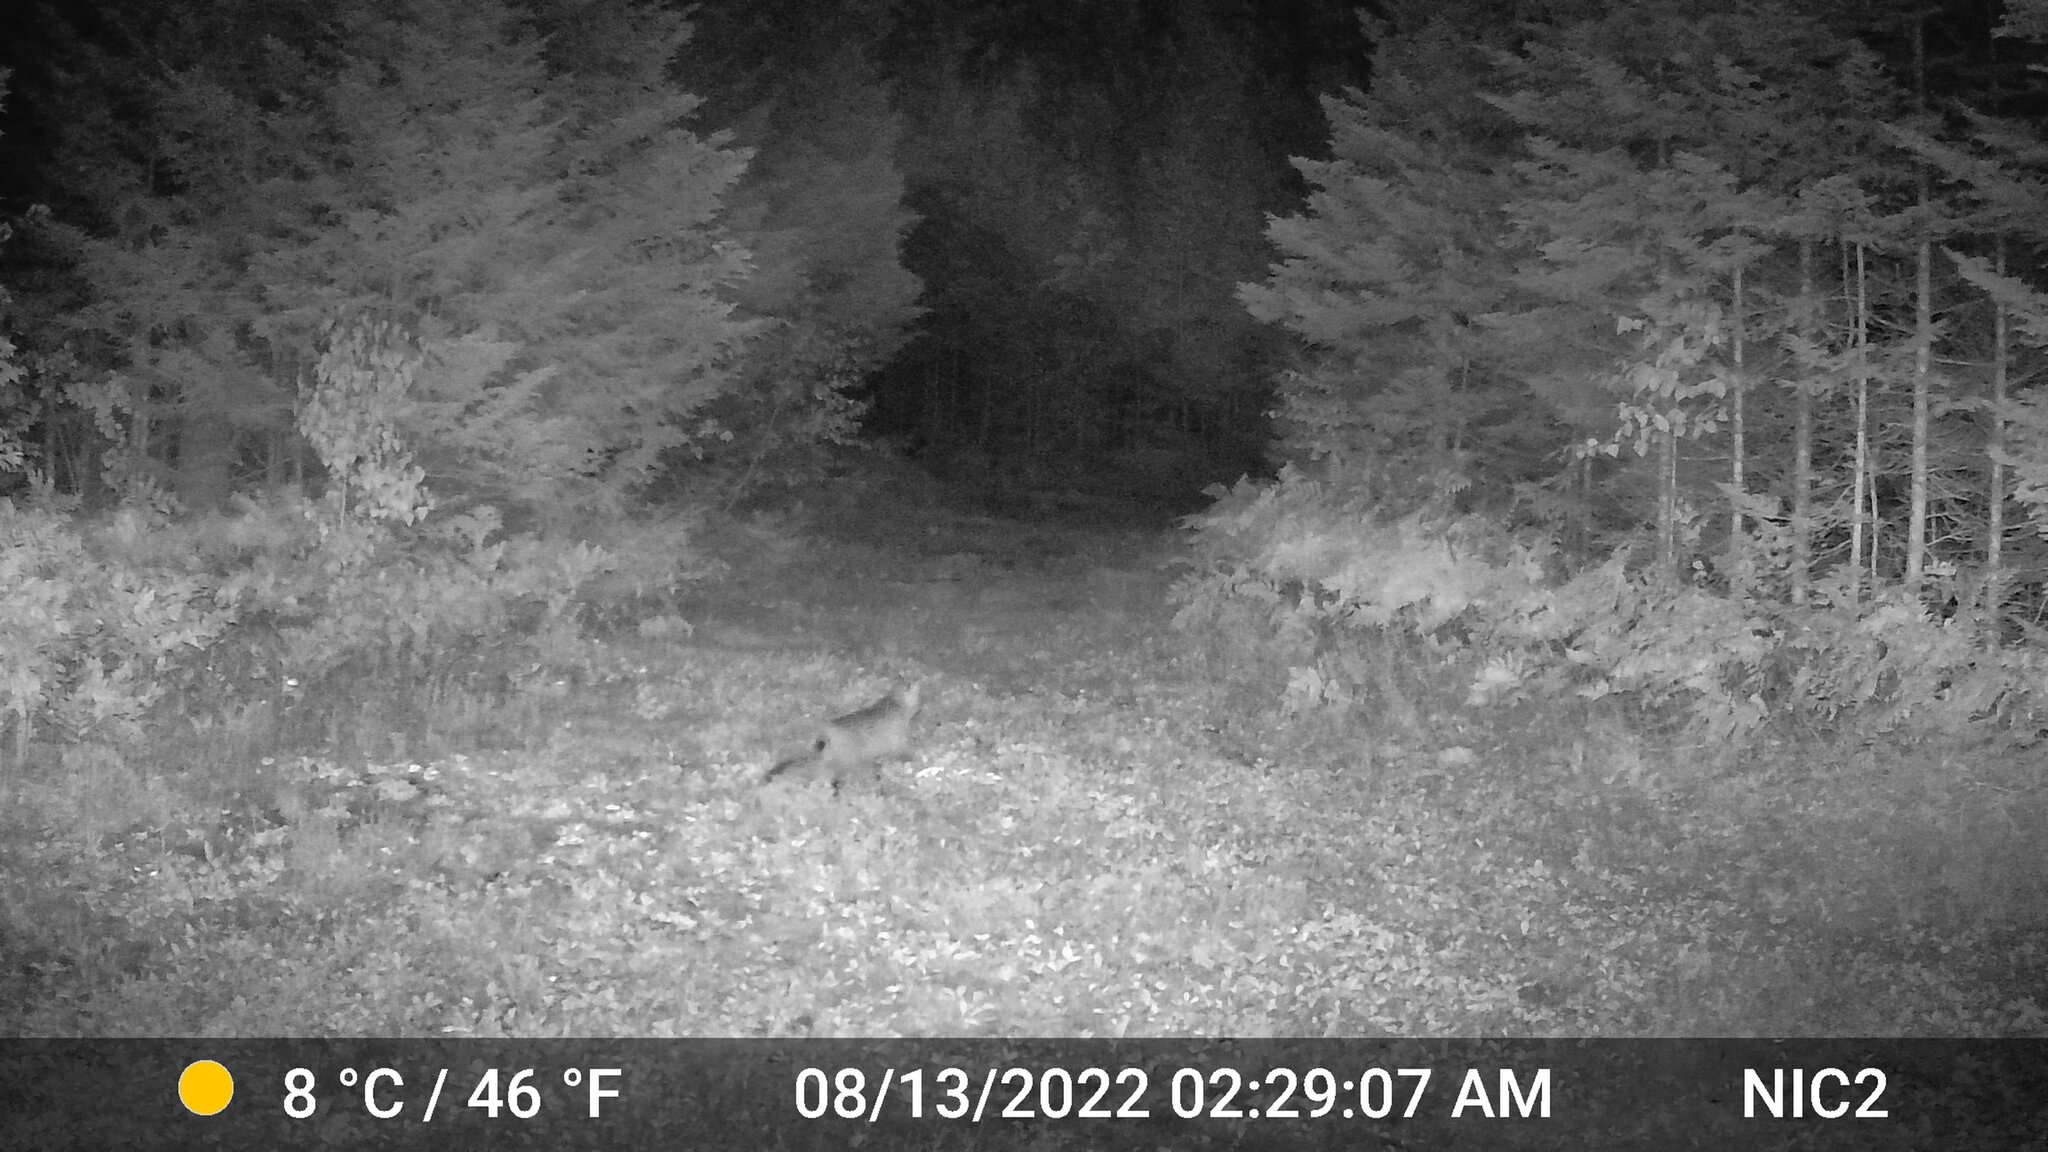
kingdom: Animalia
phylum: Chordata
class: Mammalia
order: Carnivora
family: Felidae
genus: Lynx
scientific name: Lynx rufus
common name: Bobcat
